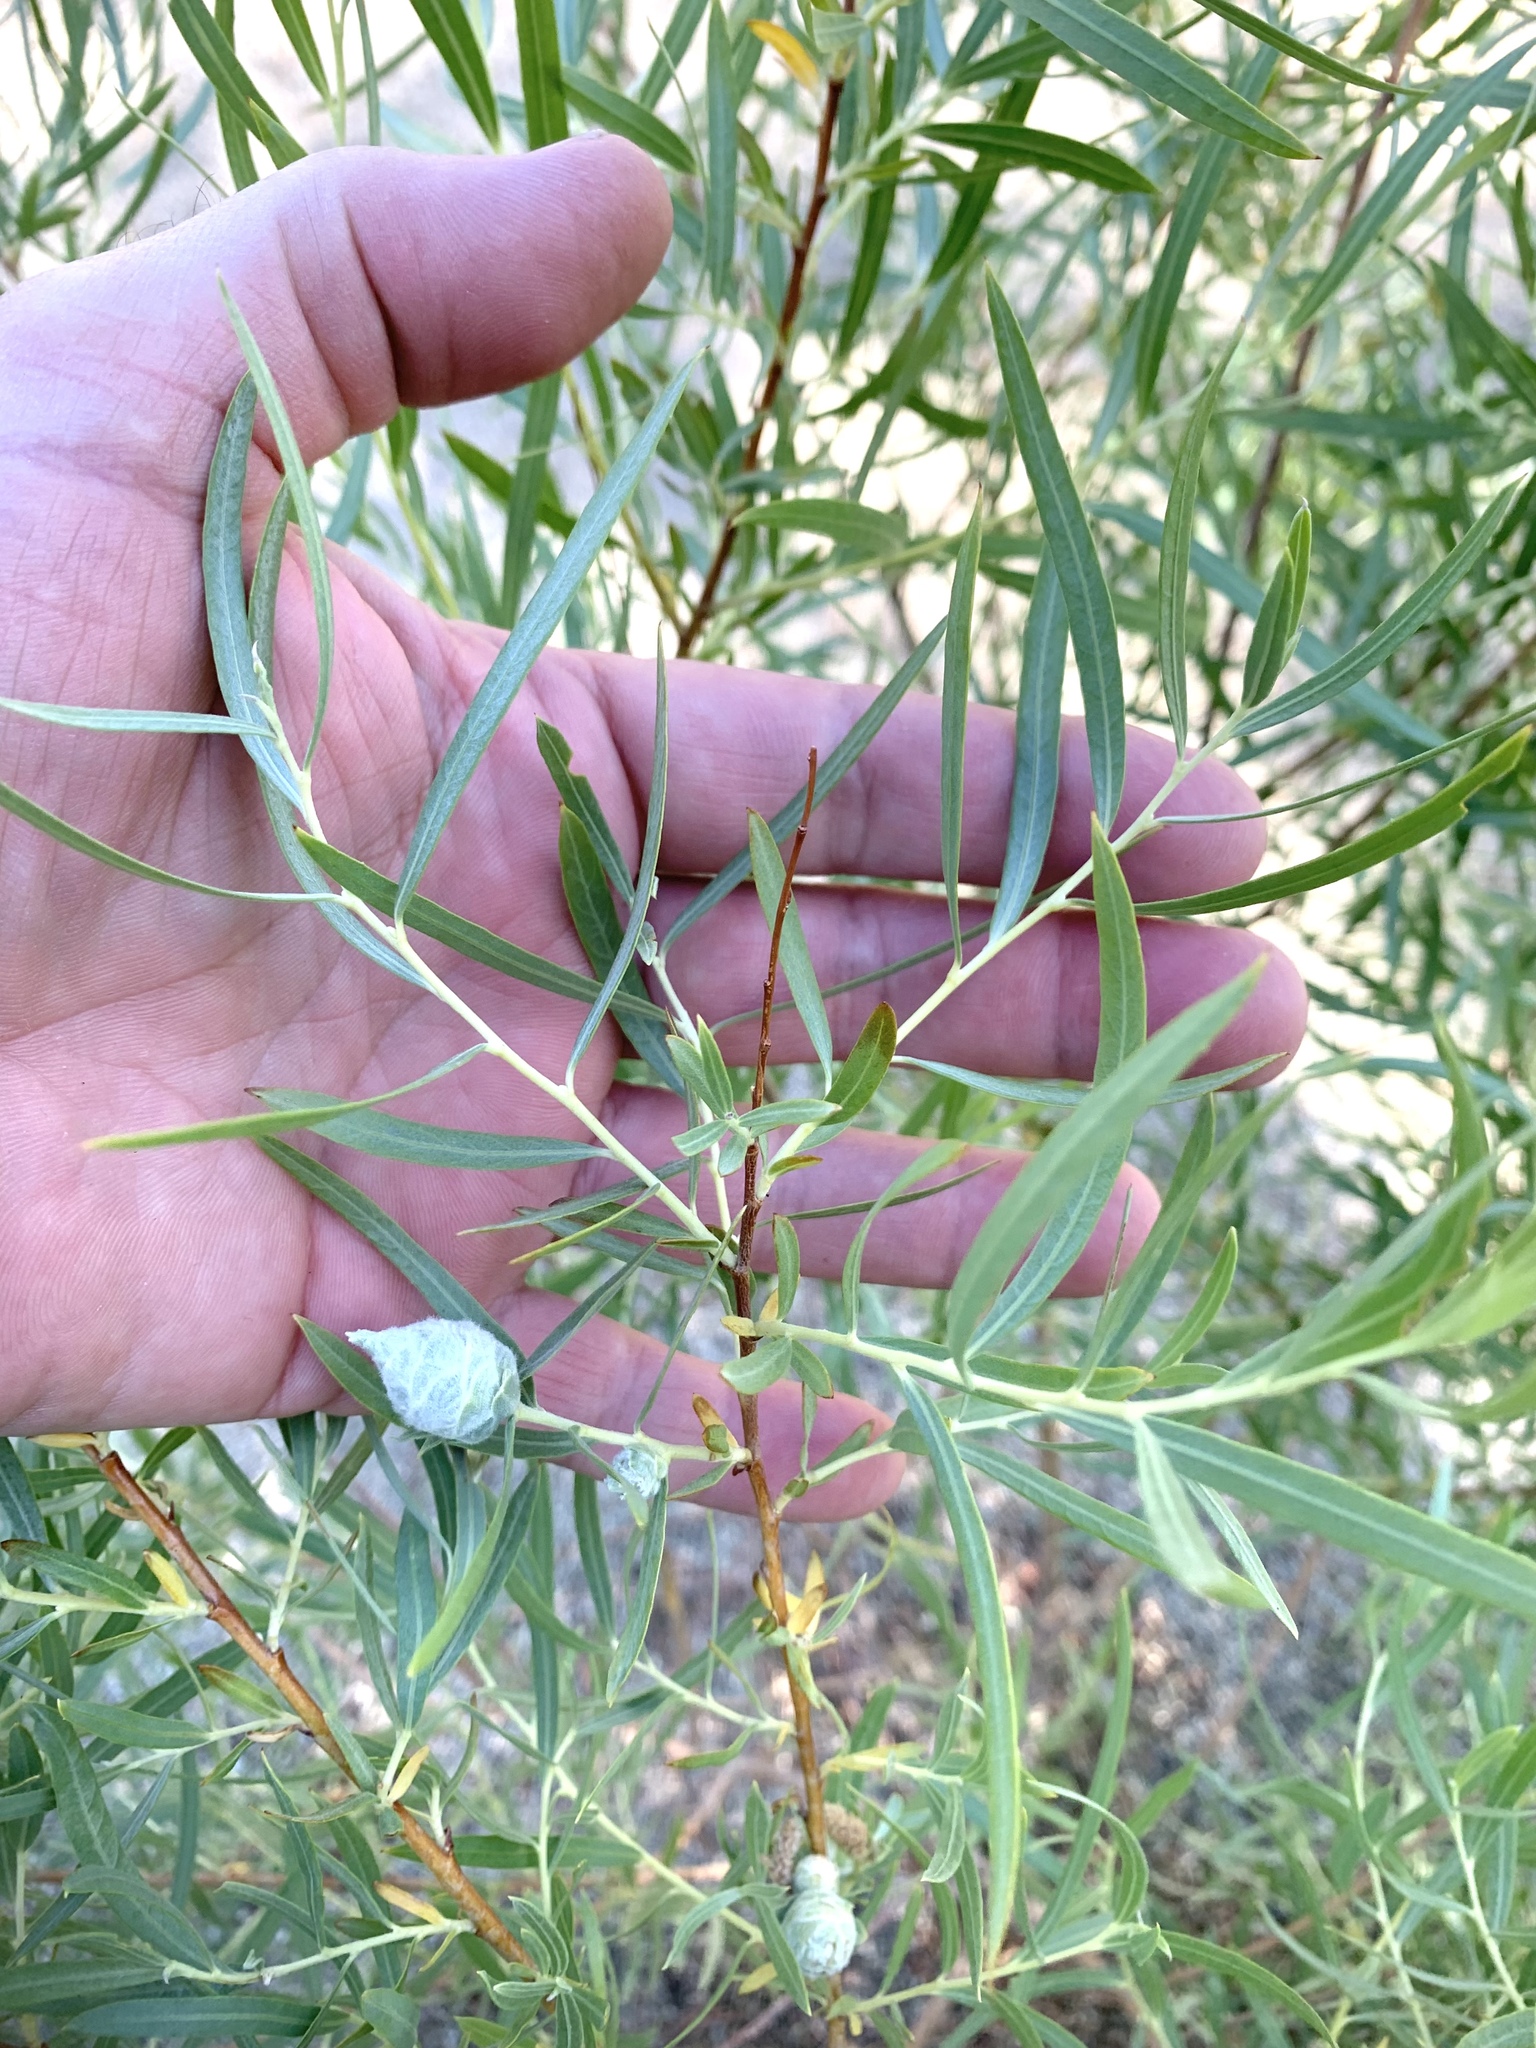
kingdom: Plantae
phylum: Tracheophyta
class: Magnoliopsida
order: Malpighiales
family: Salicaceae
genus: Salix
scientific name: Salix exigua
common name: Coyote willow
